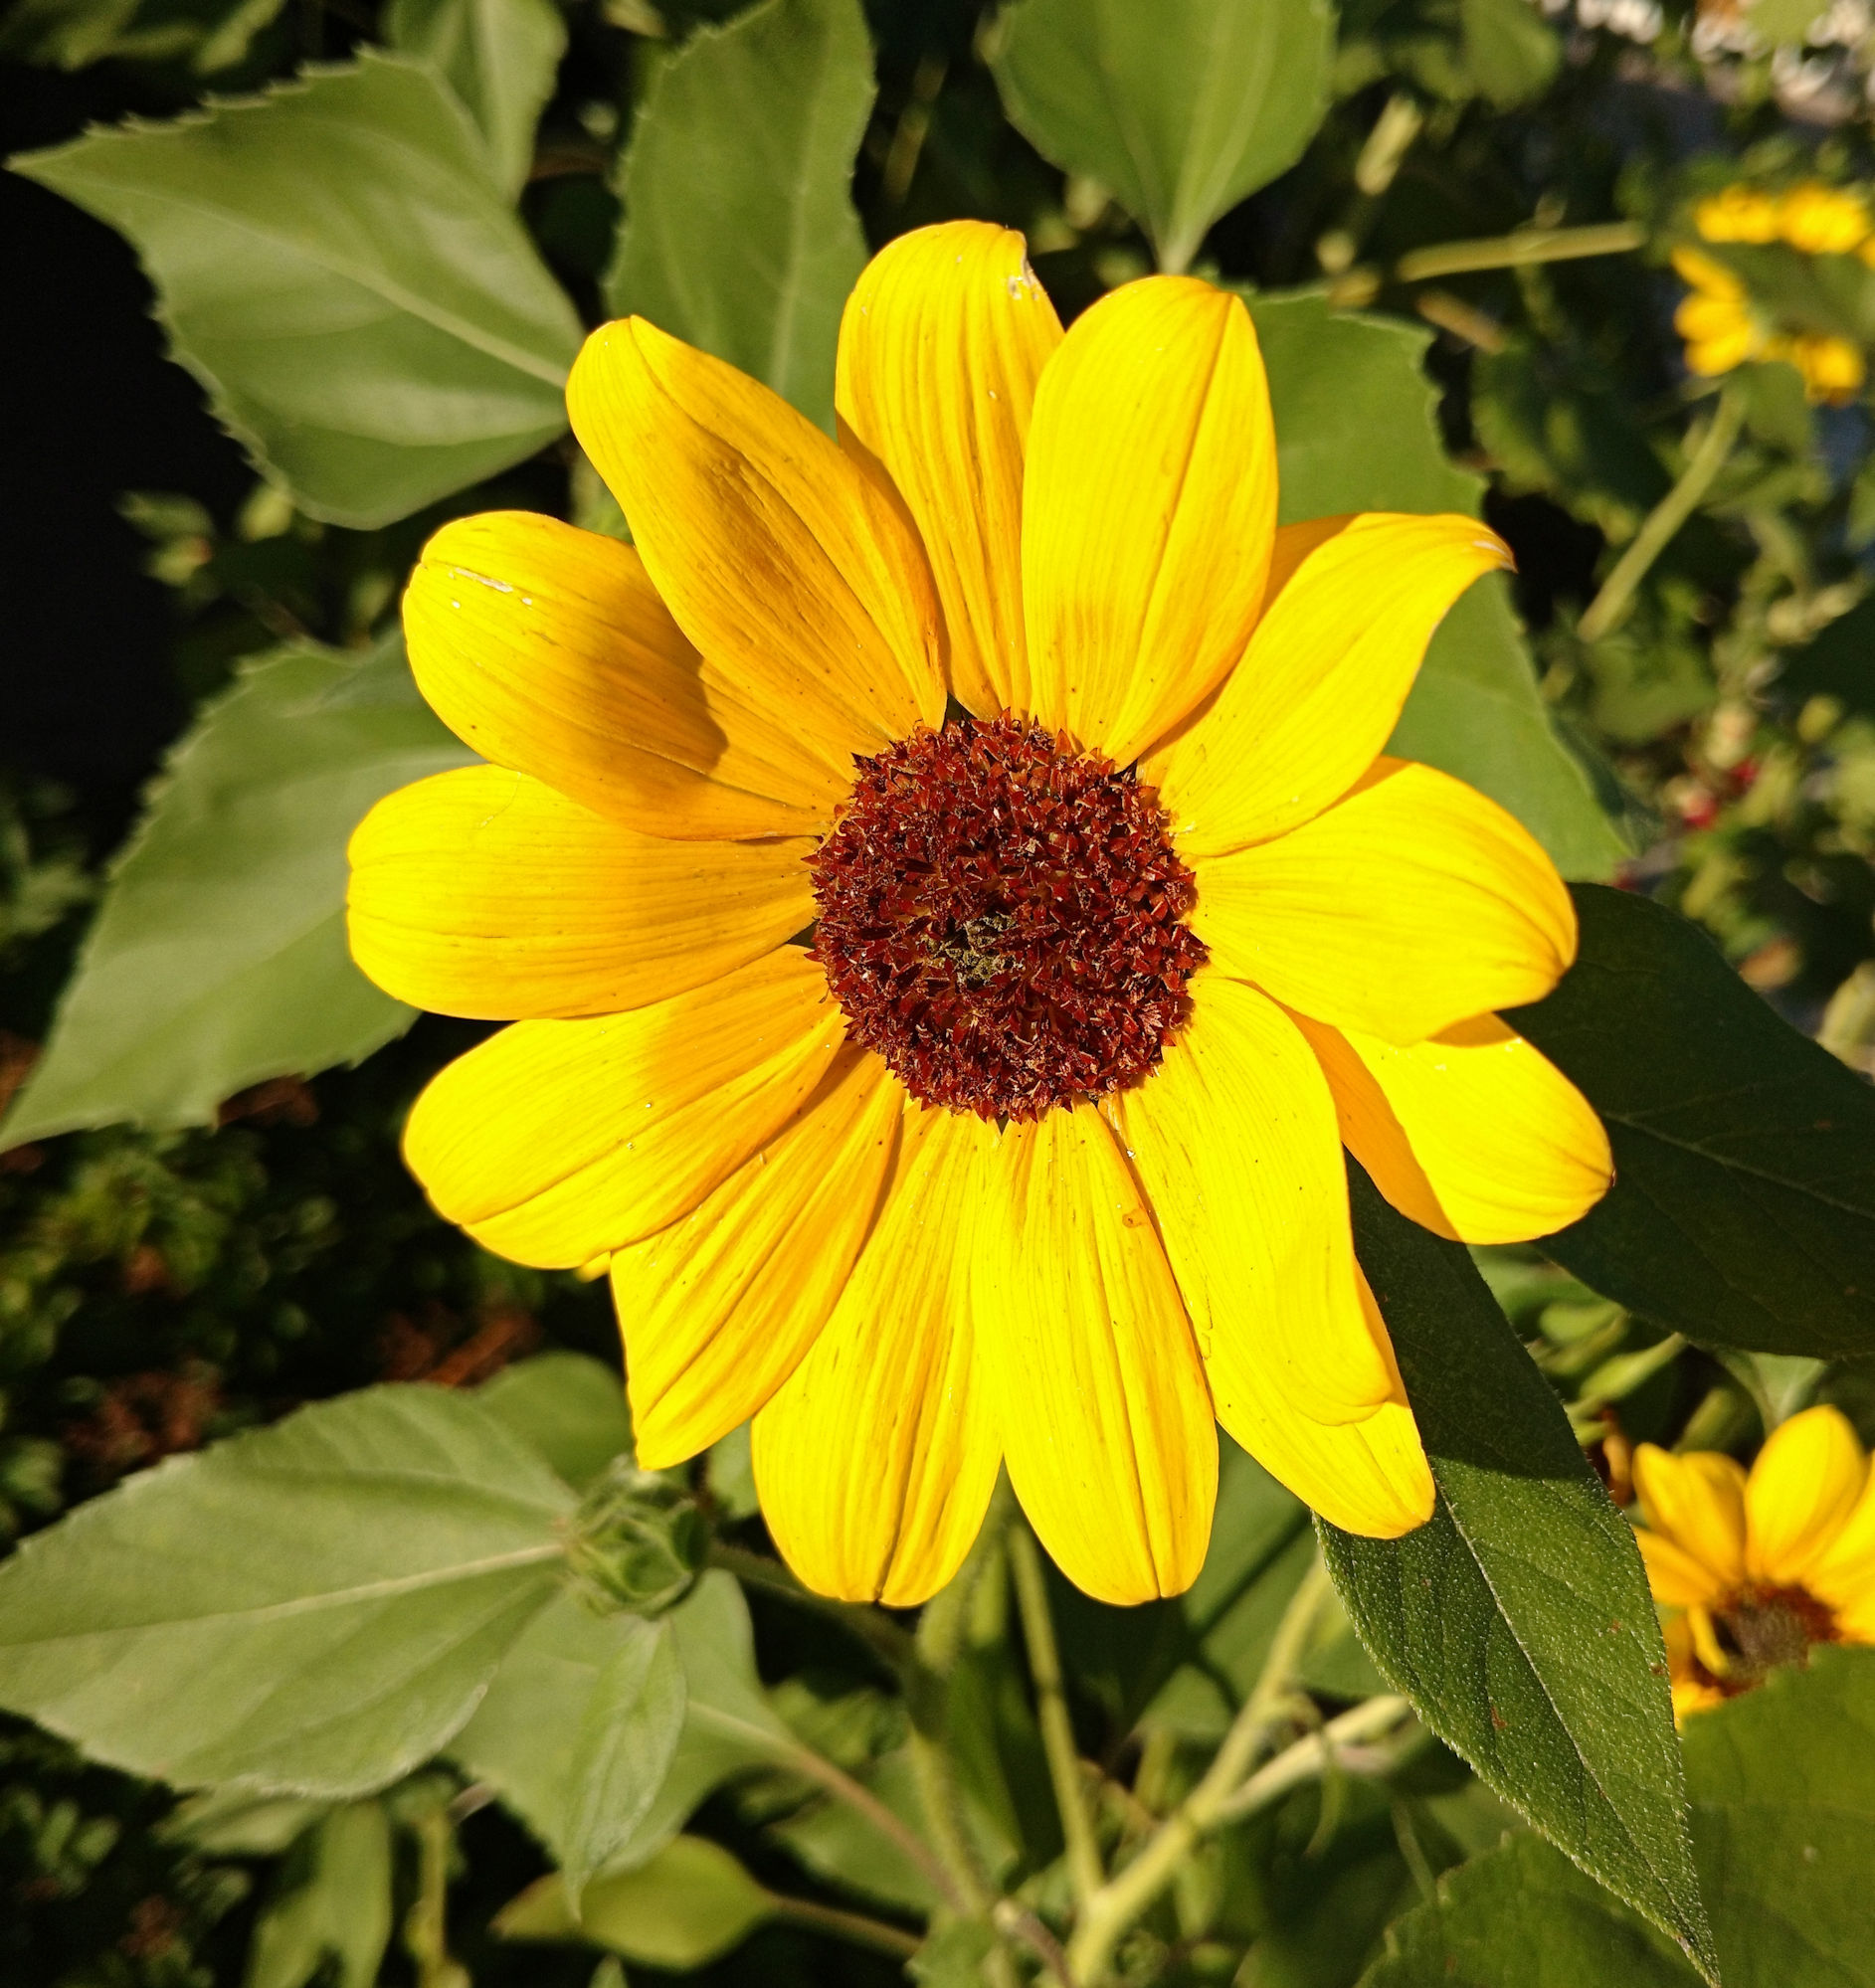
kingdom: Plantae
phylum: Tracheophyta
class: Magnoliopsida
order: Asterales
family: Asteraceae
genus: Helianthus
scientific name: Helianthus annuus
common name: Sunflower
